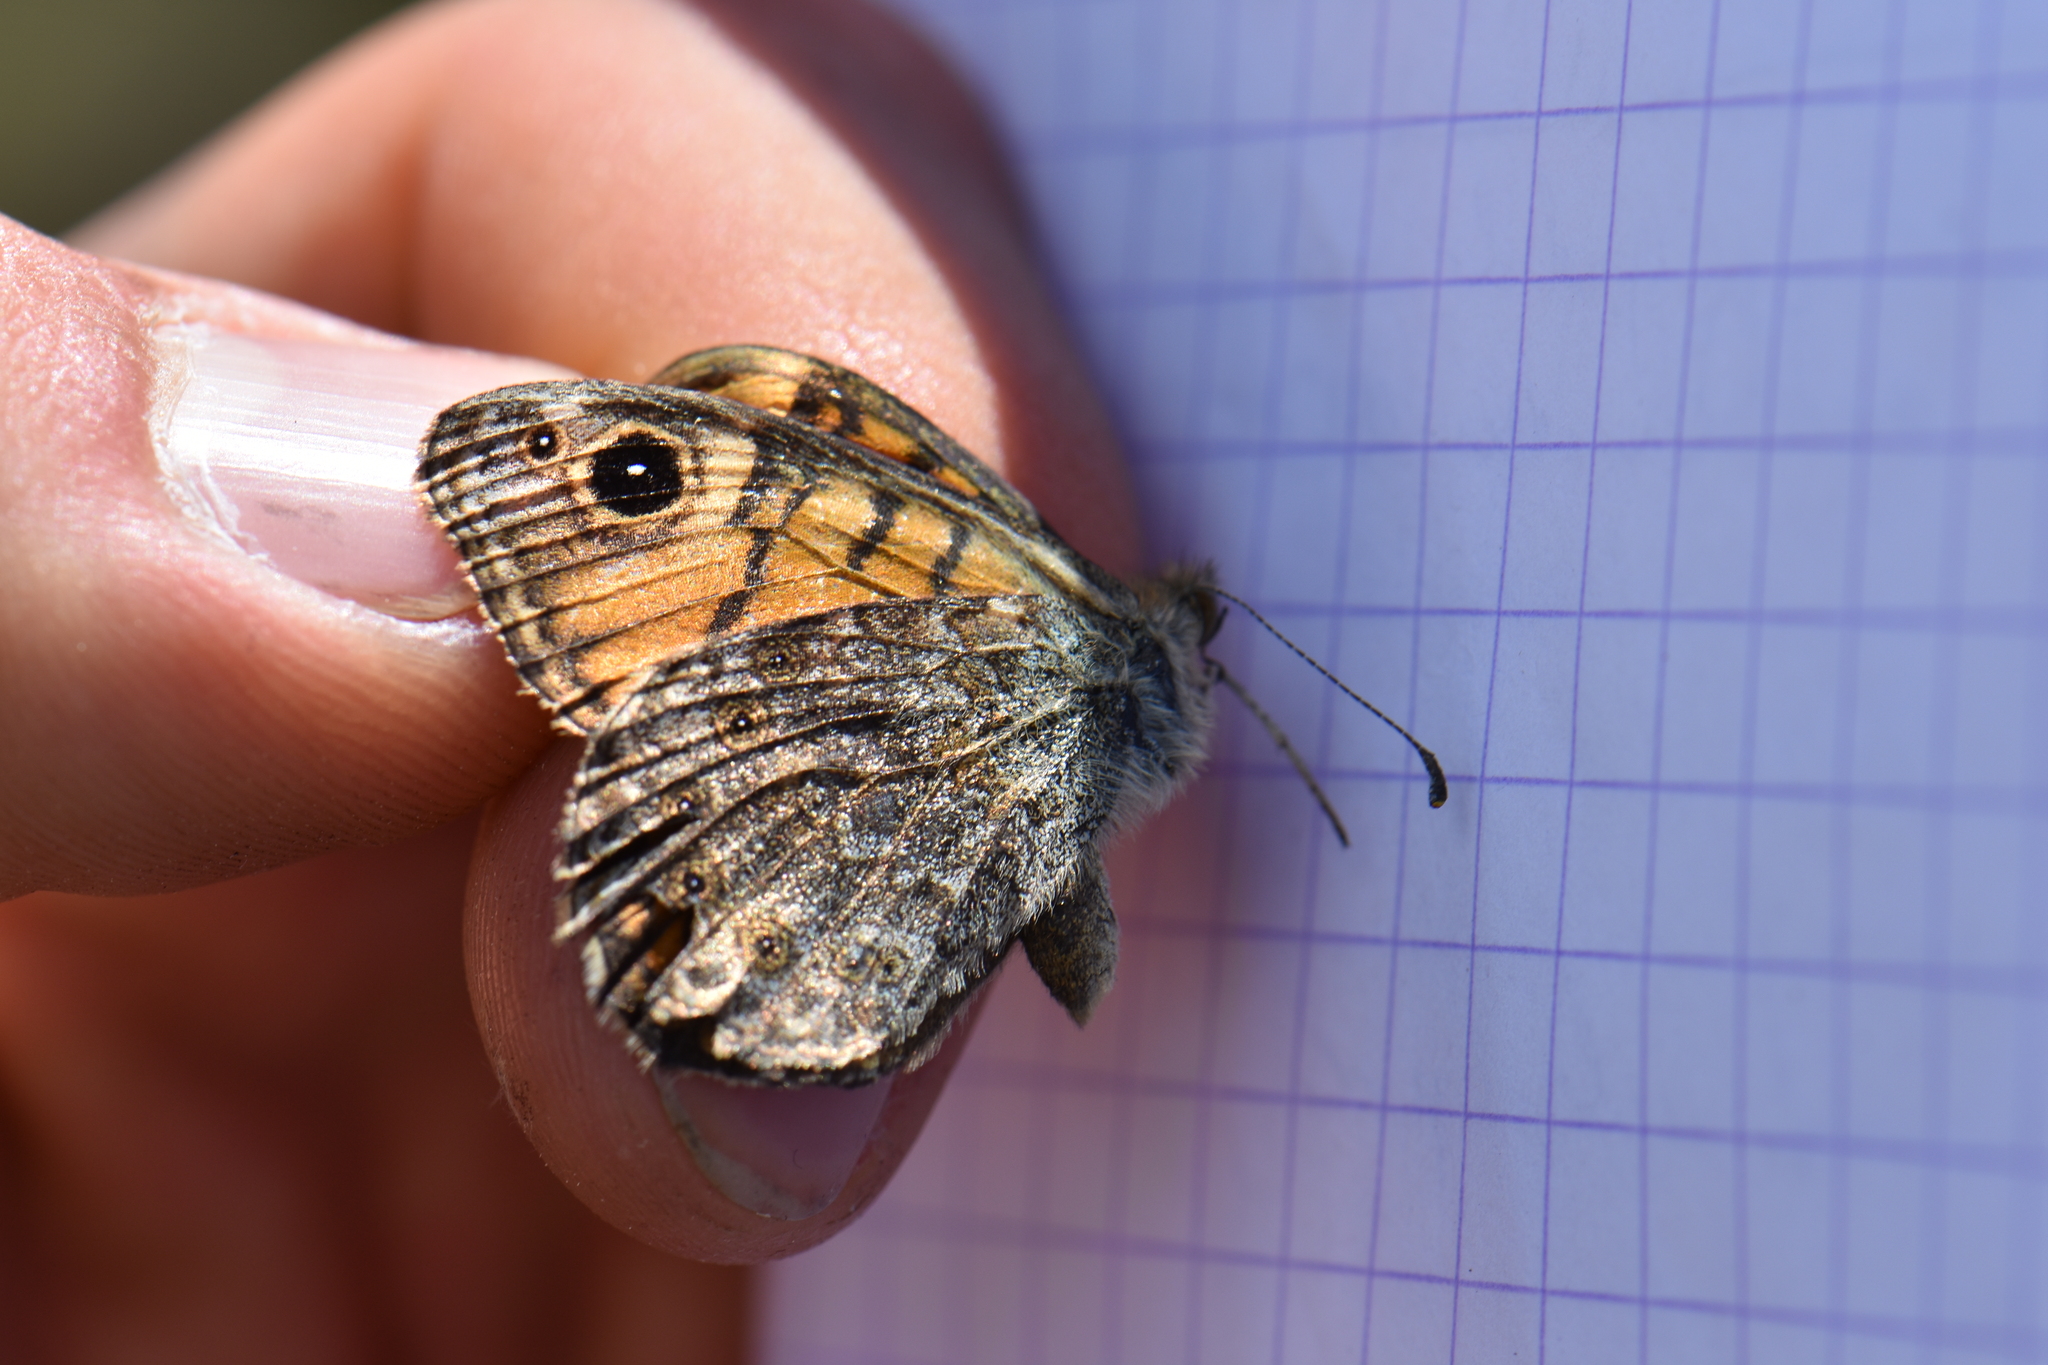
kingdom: Animalia
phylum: Arthropoda
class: Insecta
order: Lepidoptera
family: Nymphalidae
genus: Pararge
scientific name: Pararge Lasiommata megera
